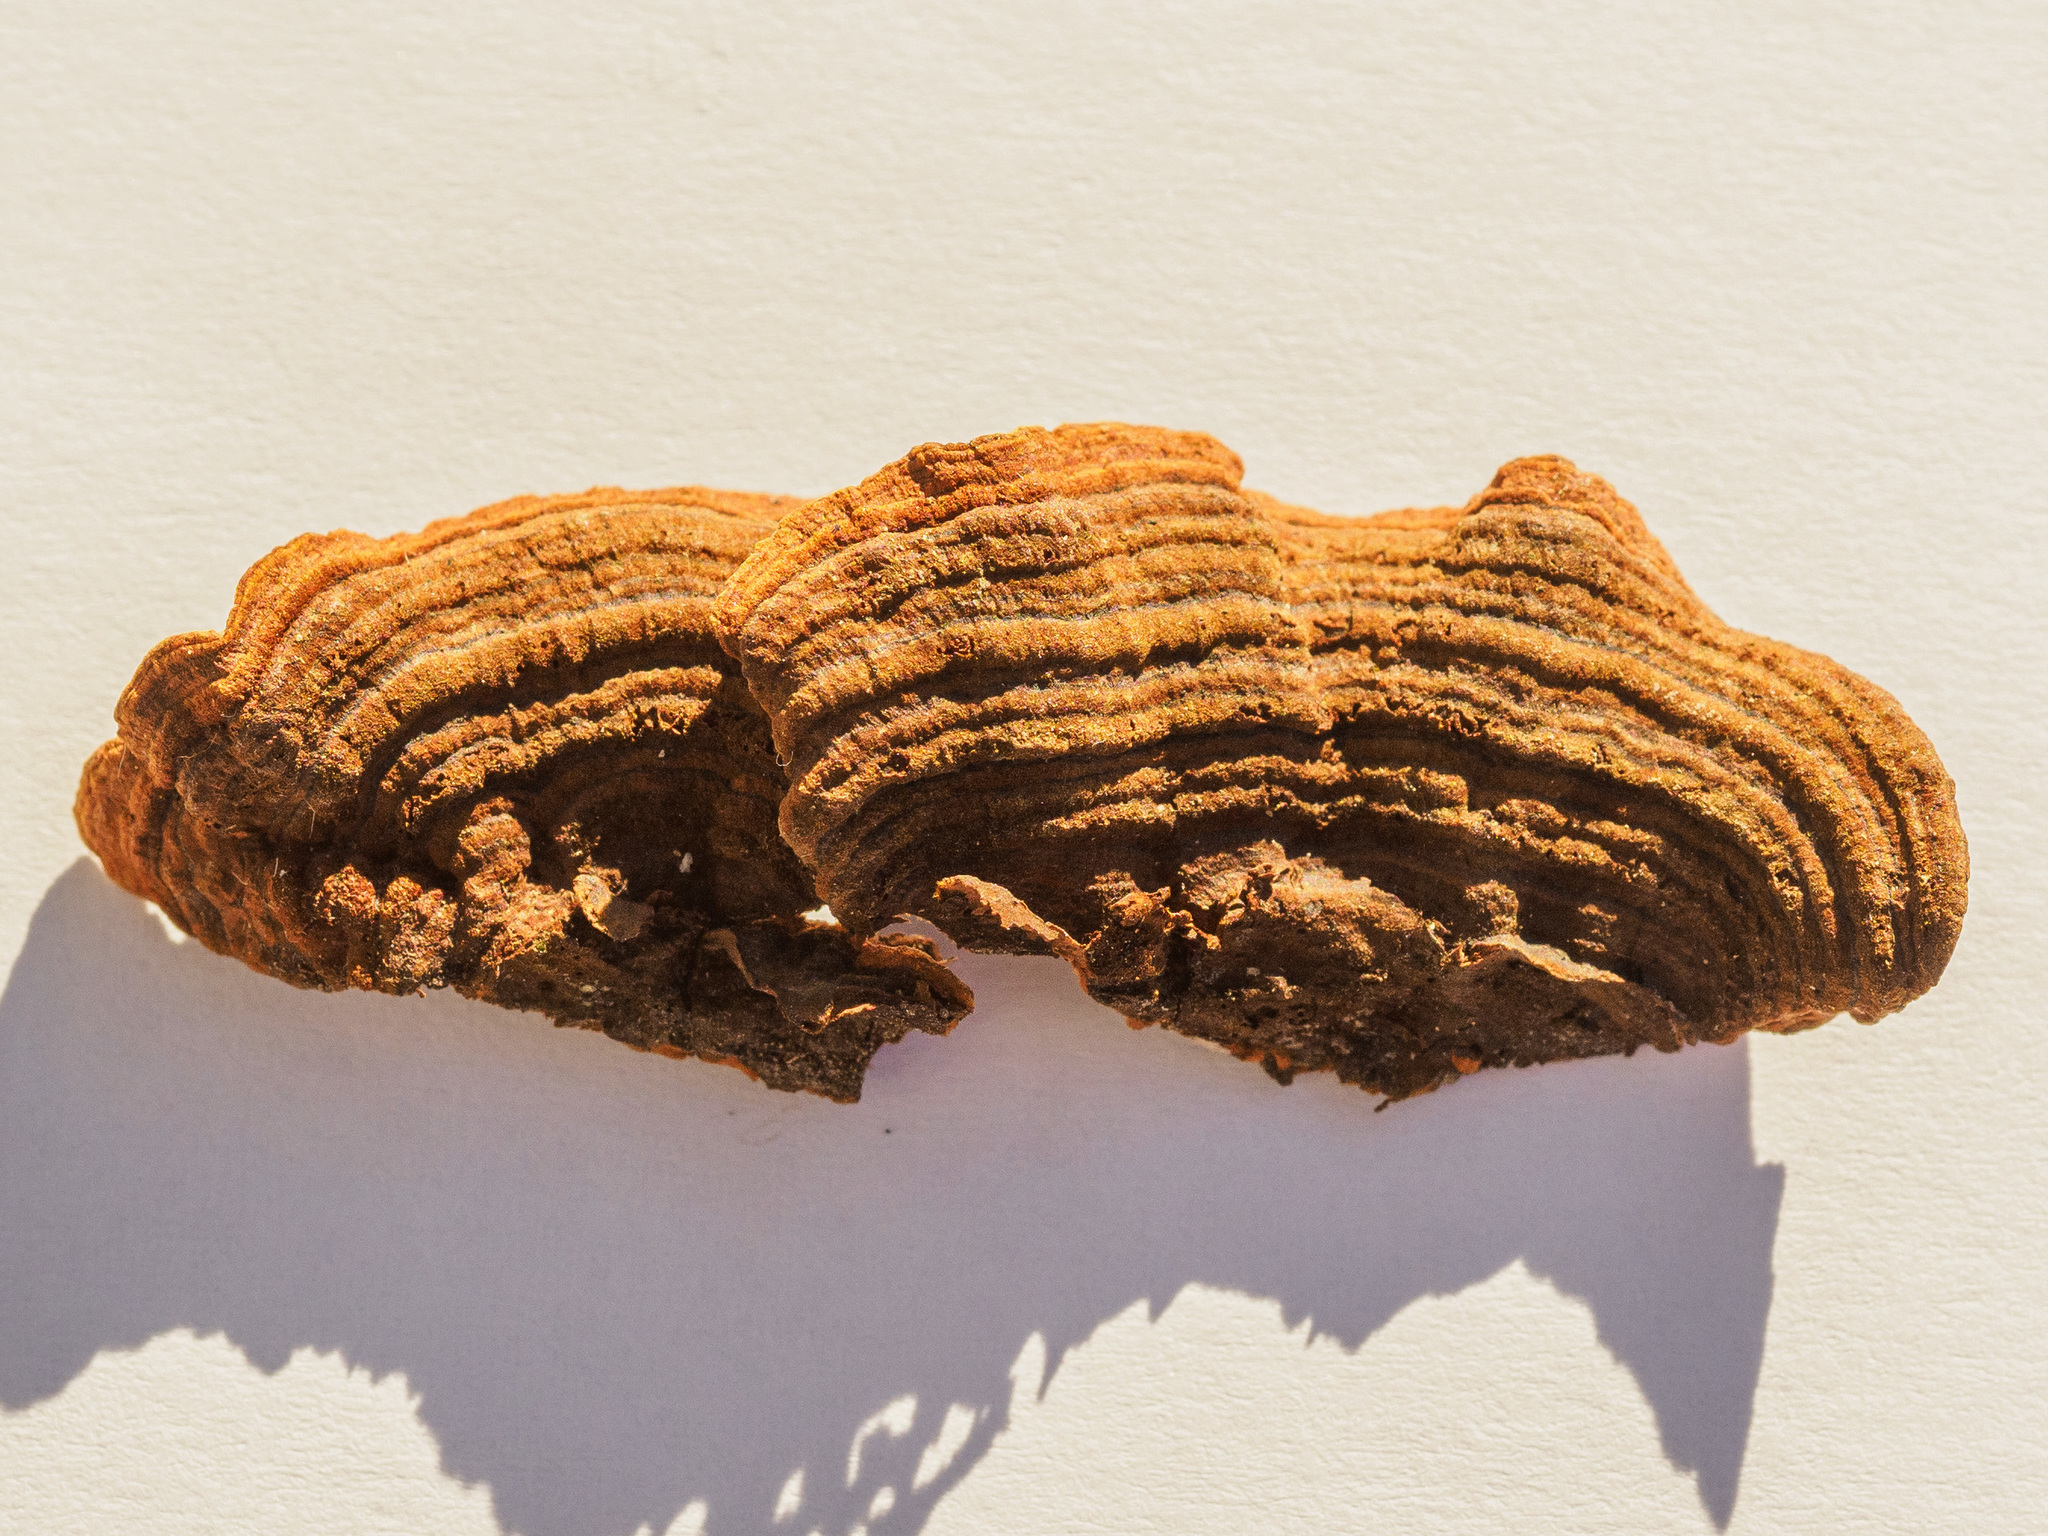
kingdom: Fungi
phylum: Basidiomycota
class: Agaricomycetes
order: Hymenochaetales
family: Hymenochaetaceae
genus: Hymenochaete
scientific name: Hymenochaete rubiginosa
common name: Oak curtain crust
